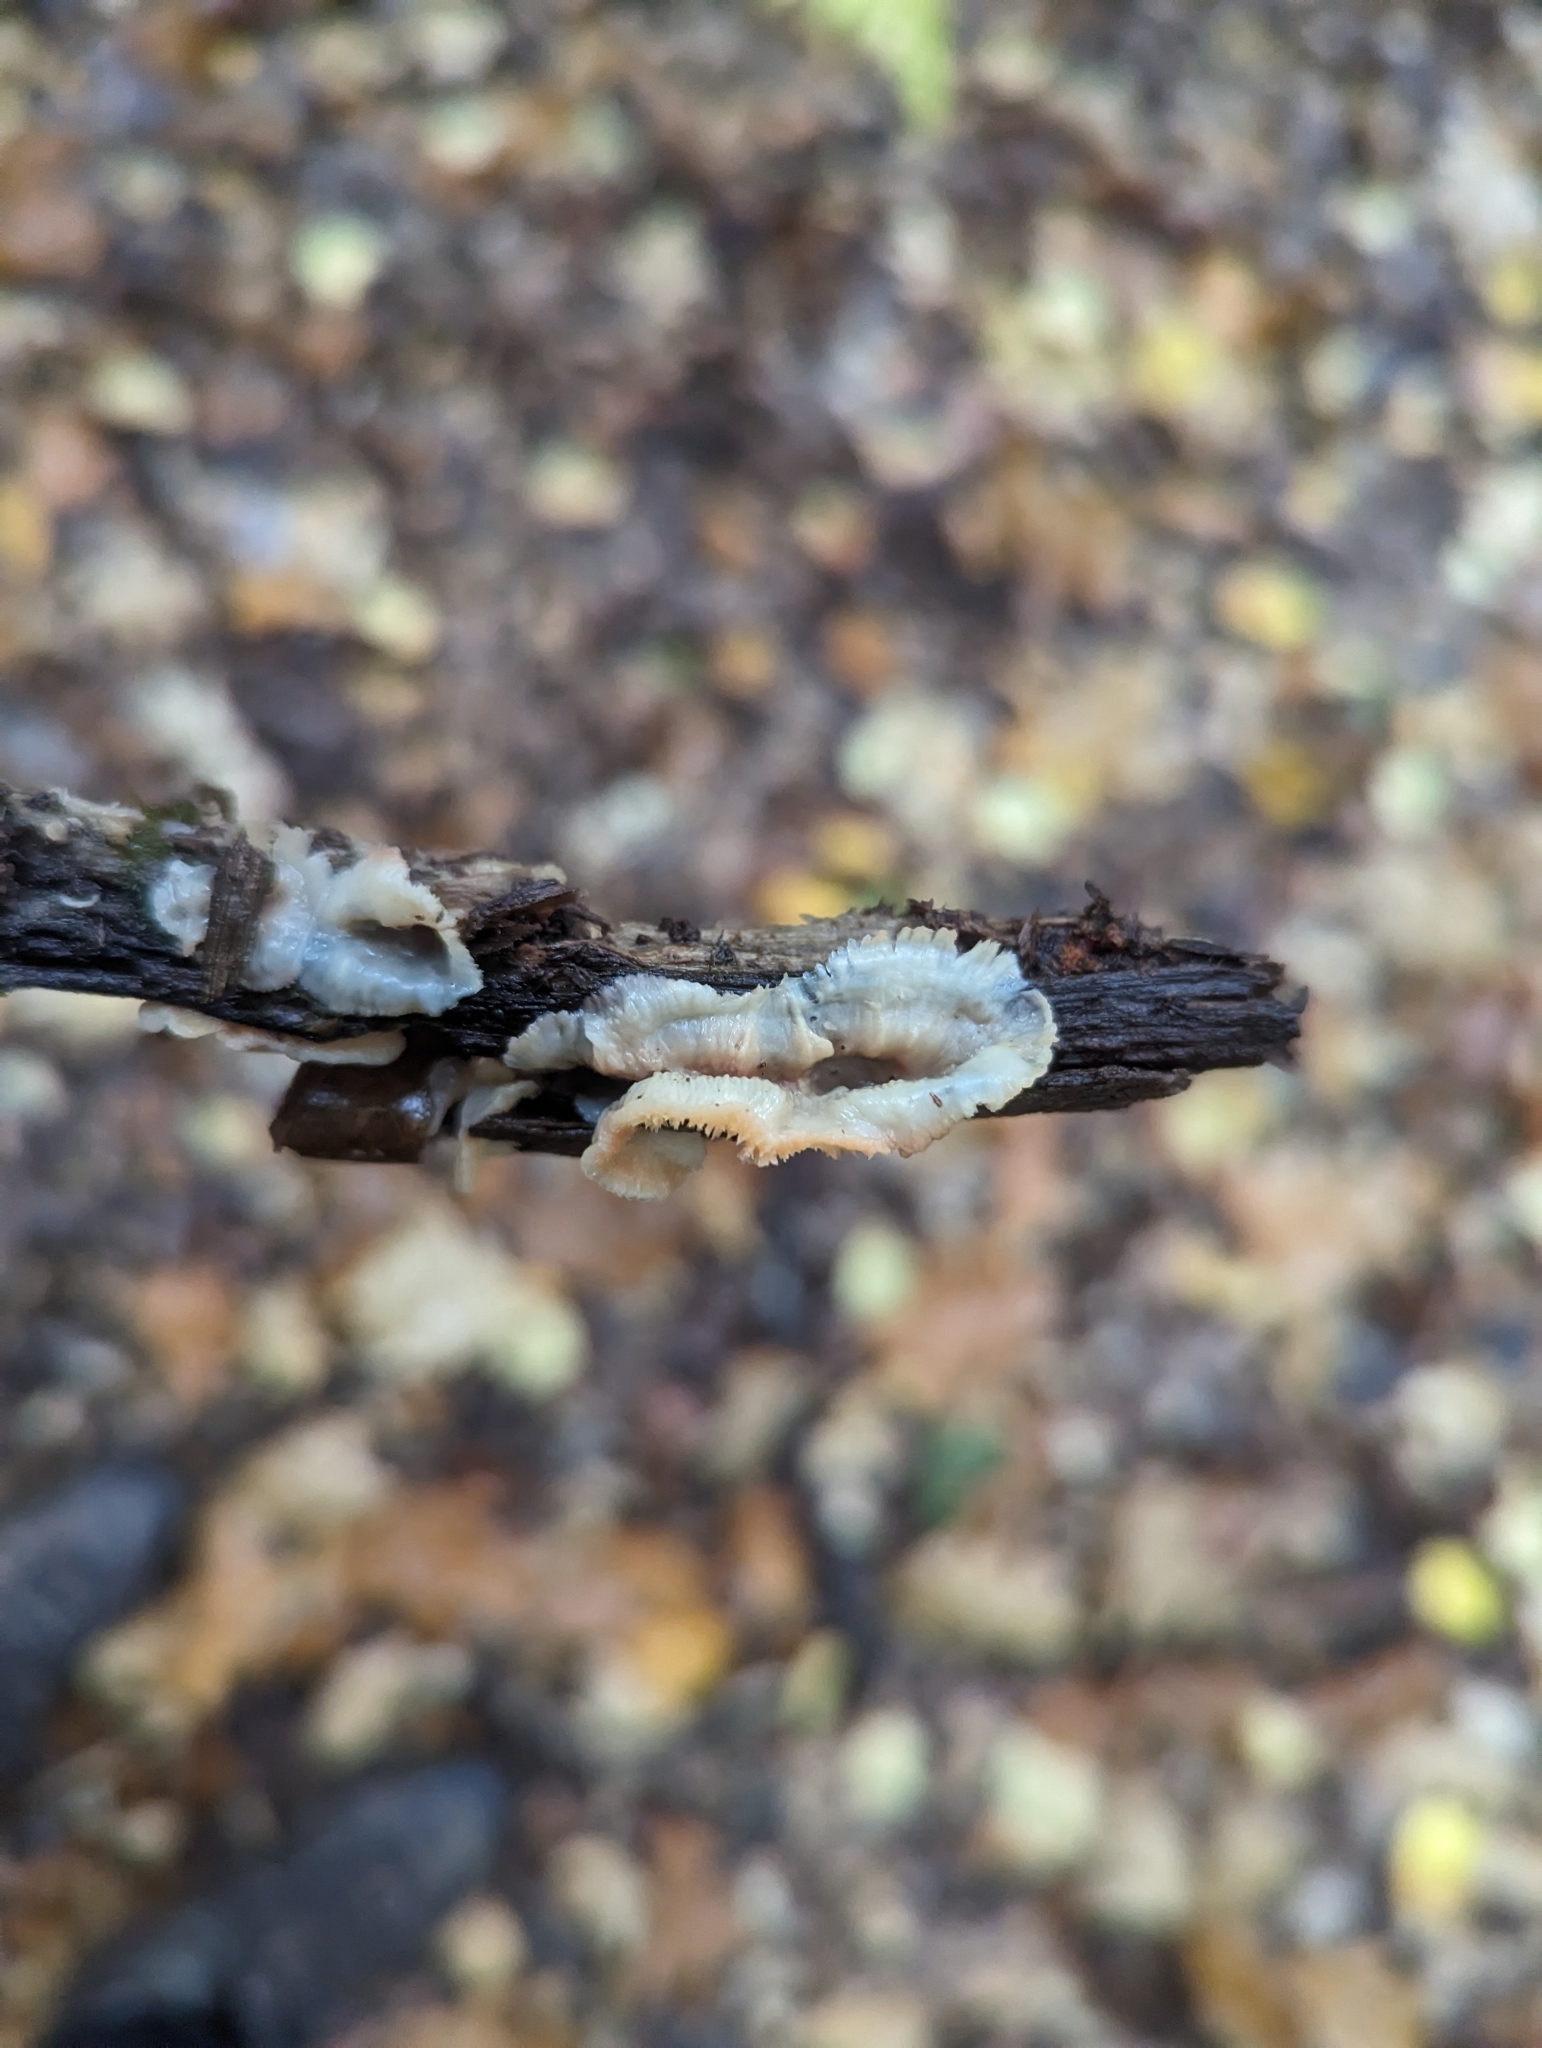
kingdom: Fungi
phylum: Basidiomycota
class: Agaricomycetes
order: Polyporales
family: Meruliaceae
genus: Phlebia
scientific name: Phlebia tremellosa
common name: Jelly rot
